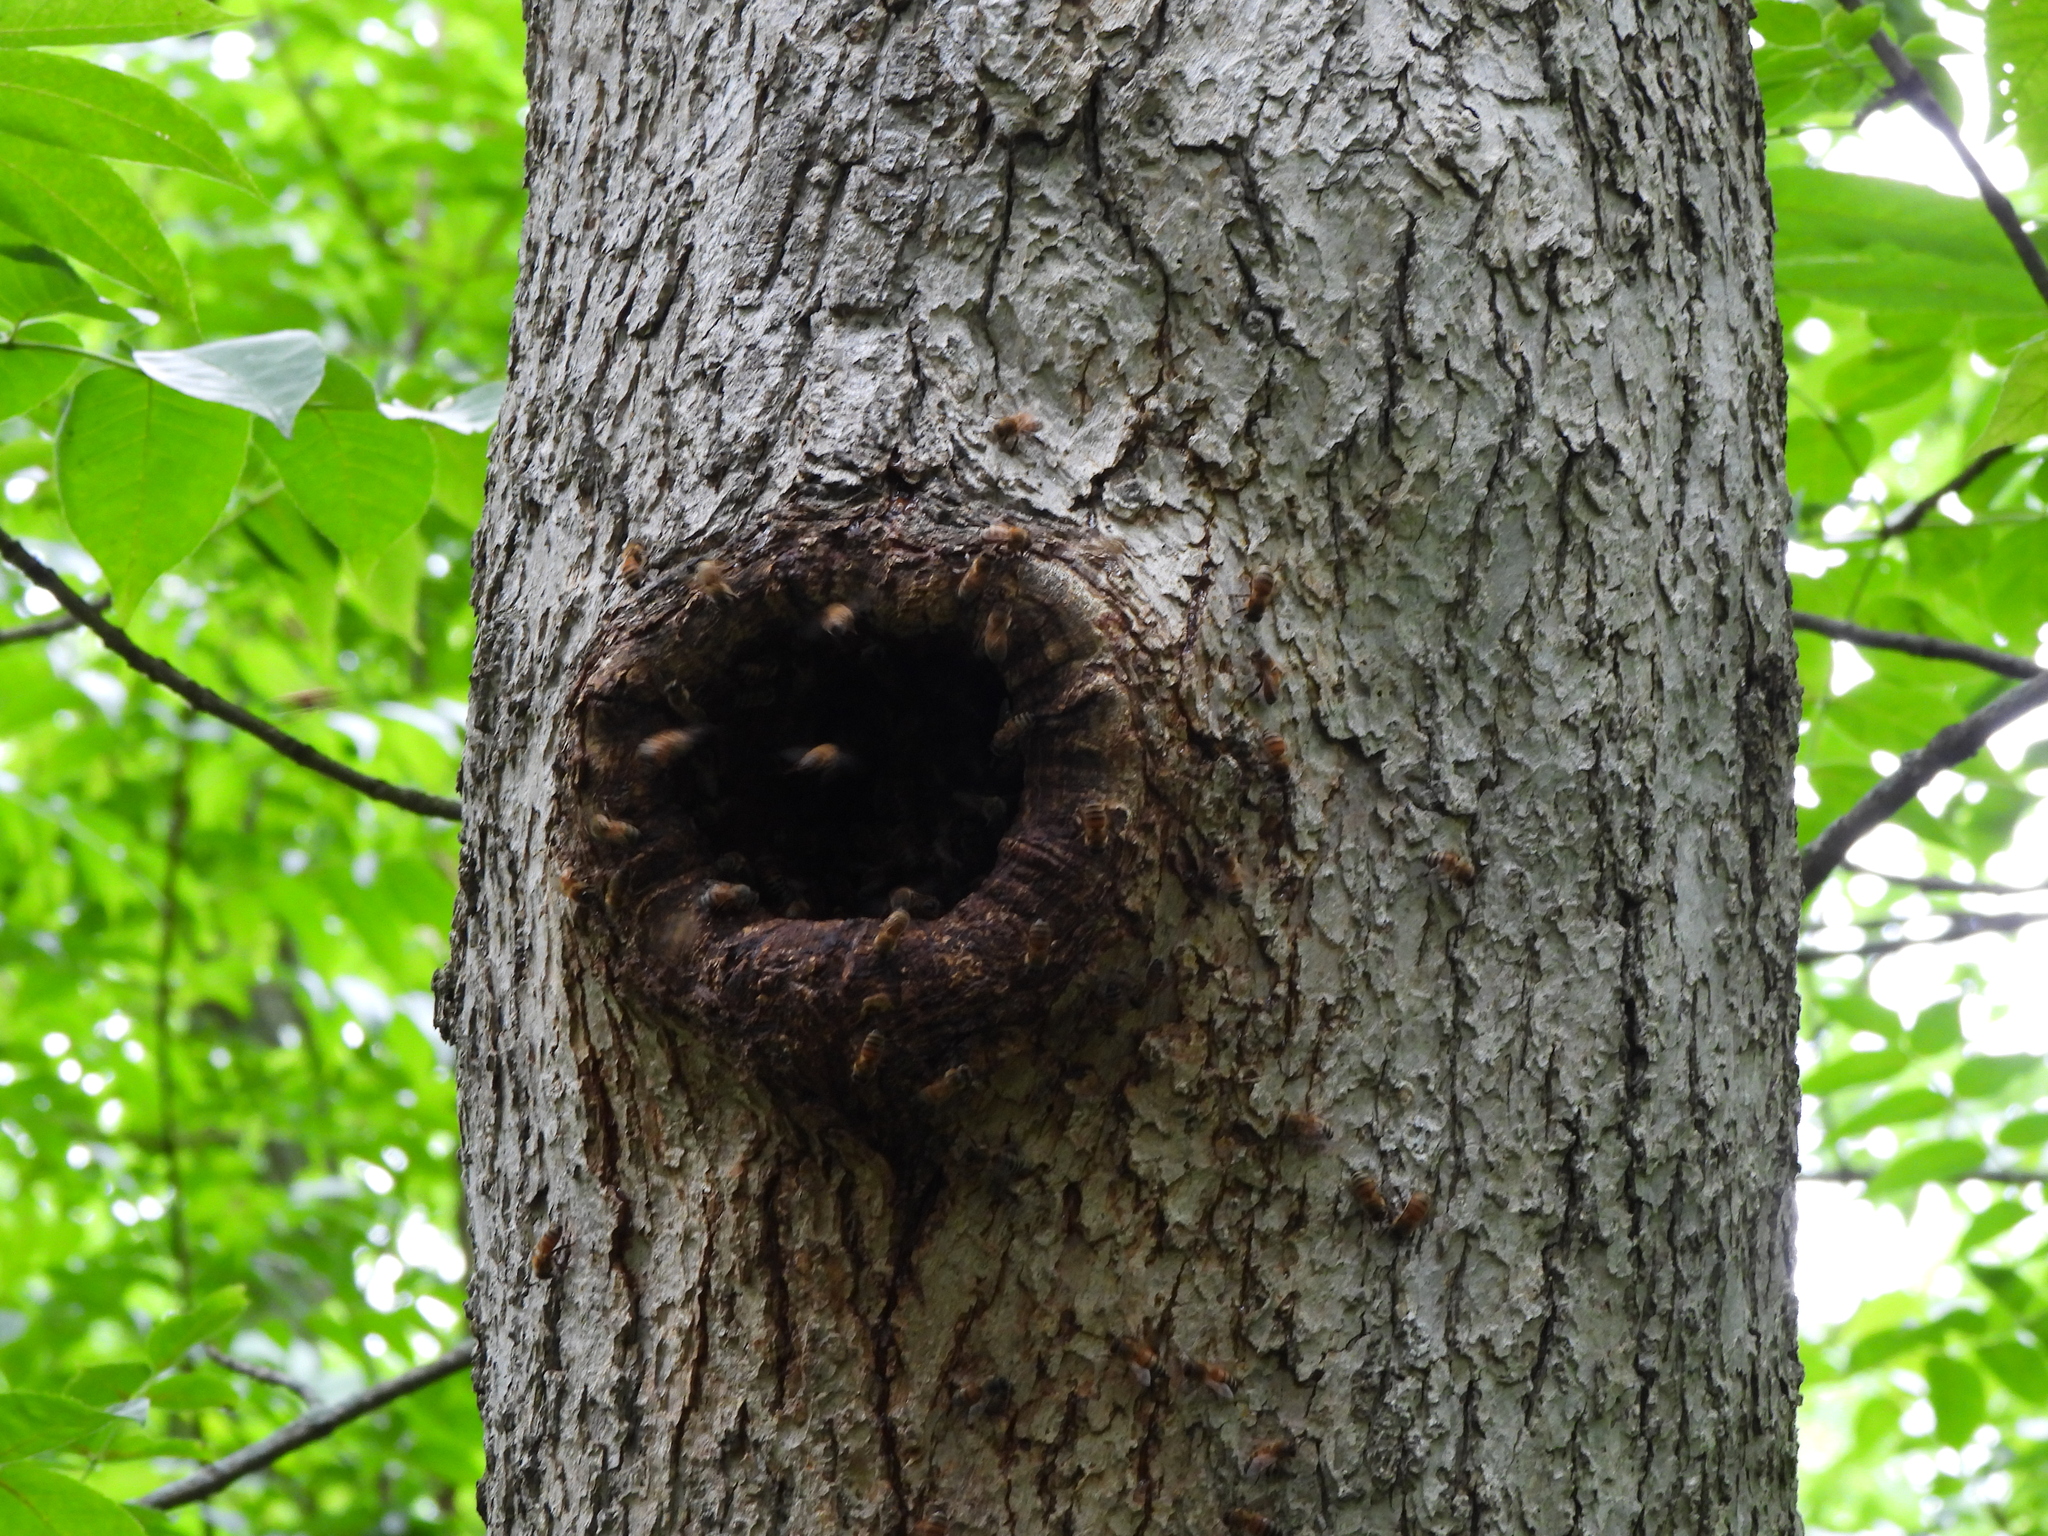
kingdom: Animalia
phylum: Arthropoda
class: Insecta
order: Hymenoptera
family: Apidae
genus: Apis
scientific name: Apis mellifera
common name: Honey bee
